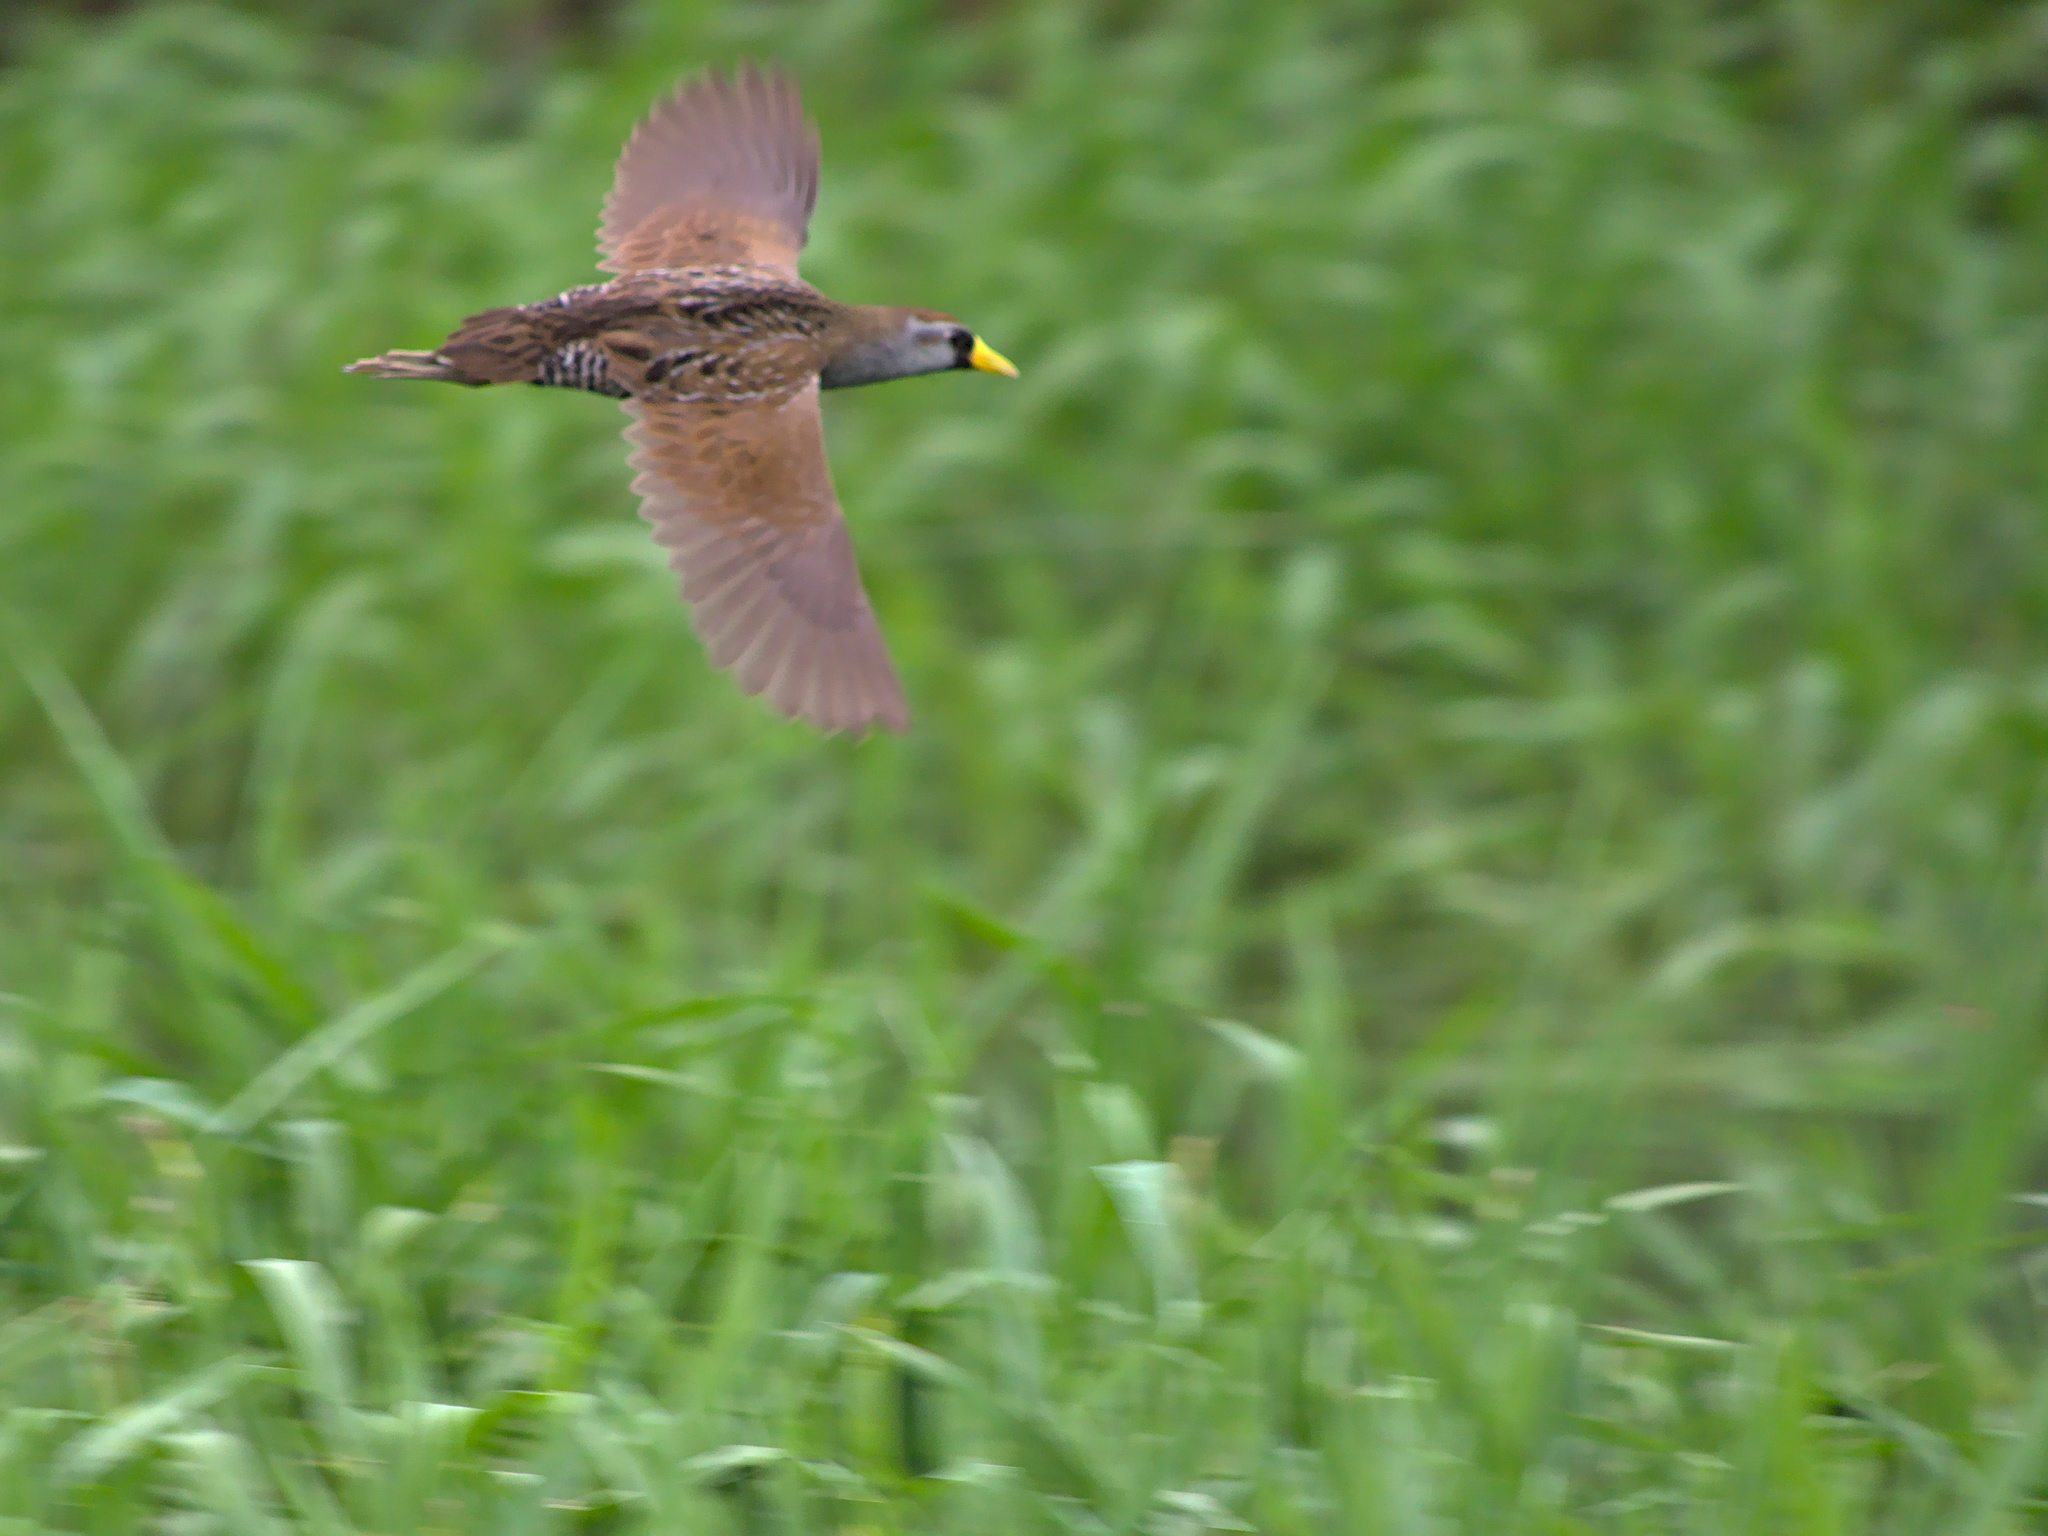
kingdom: Animalia
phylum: Chordata
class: Aves
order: Gruiformes
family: Rallidae
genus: Porzana
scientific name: Porzana carolina
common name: Sora
